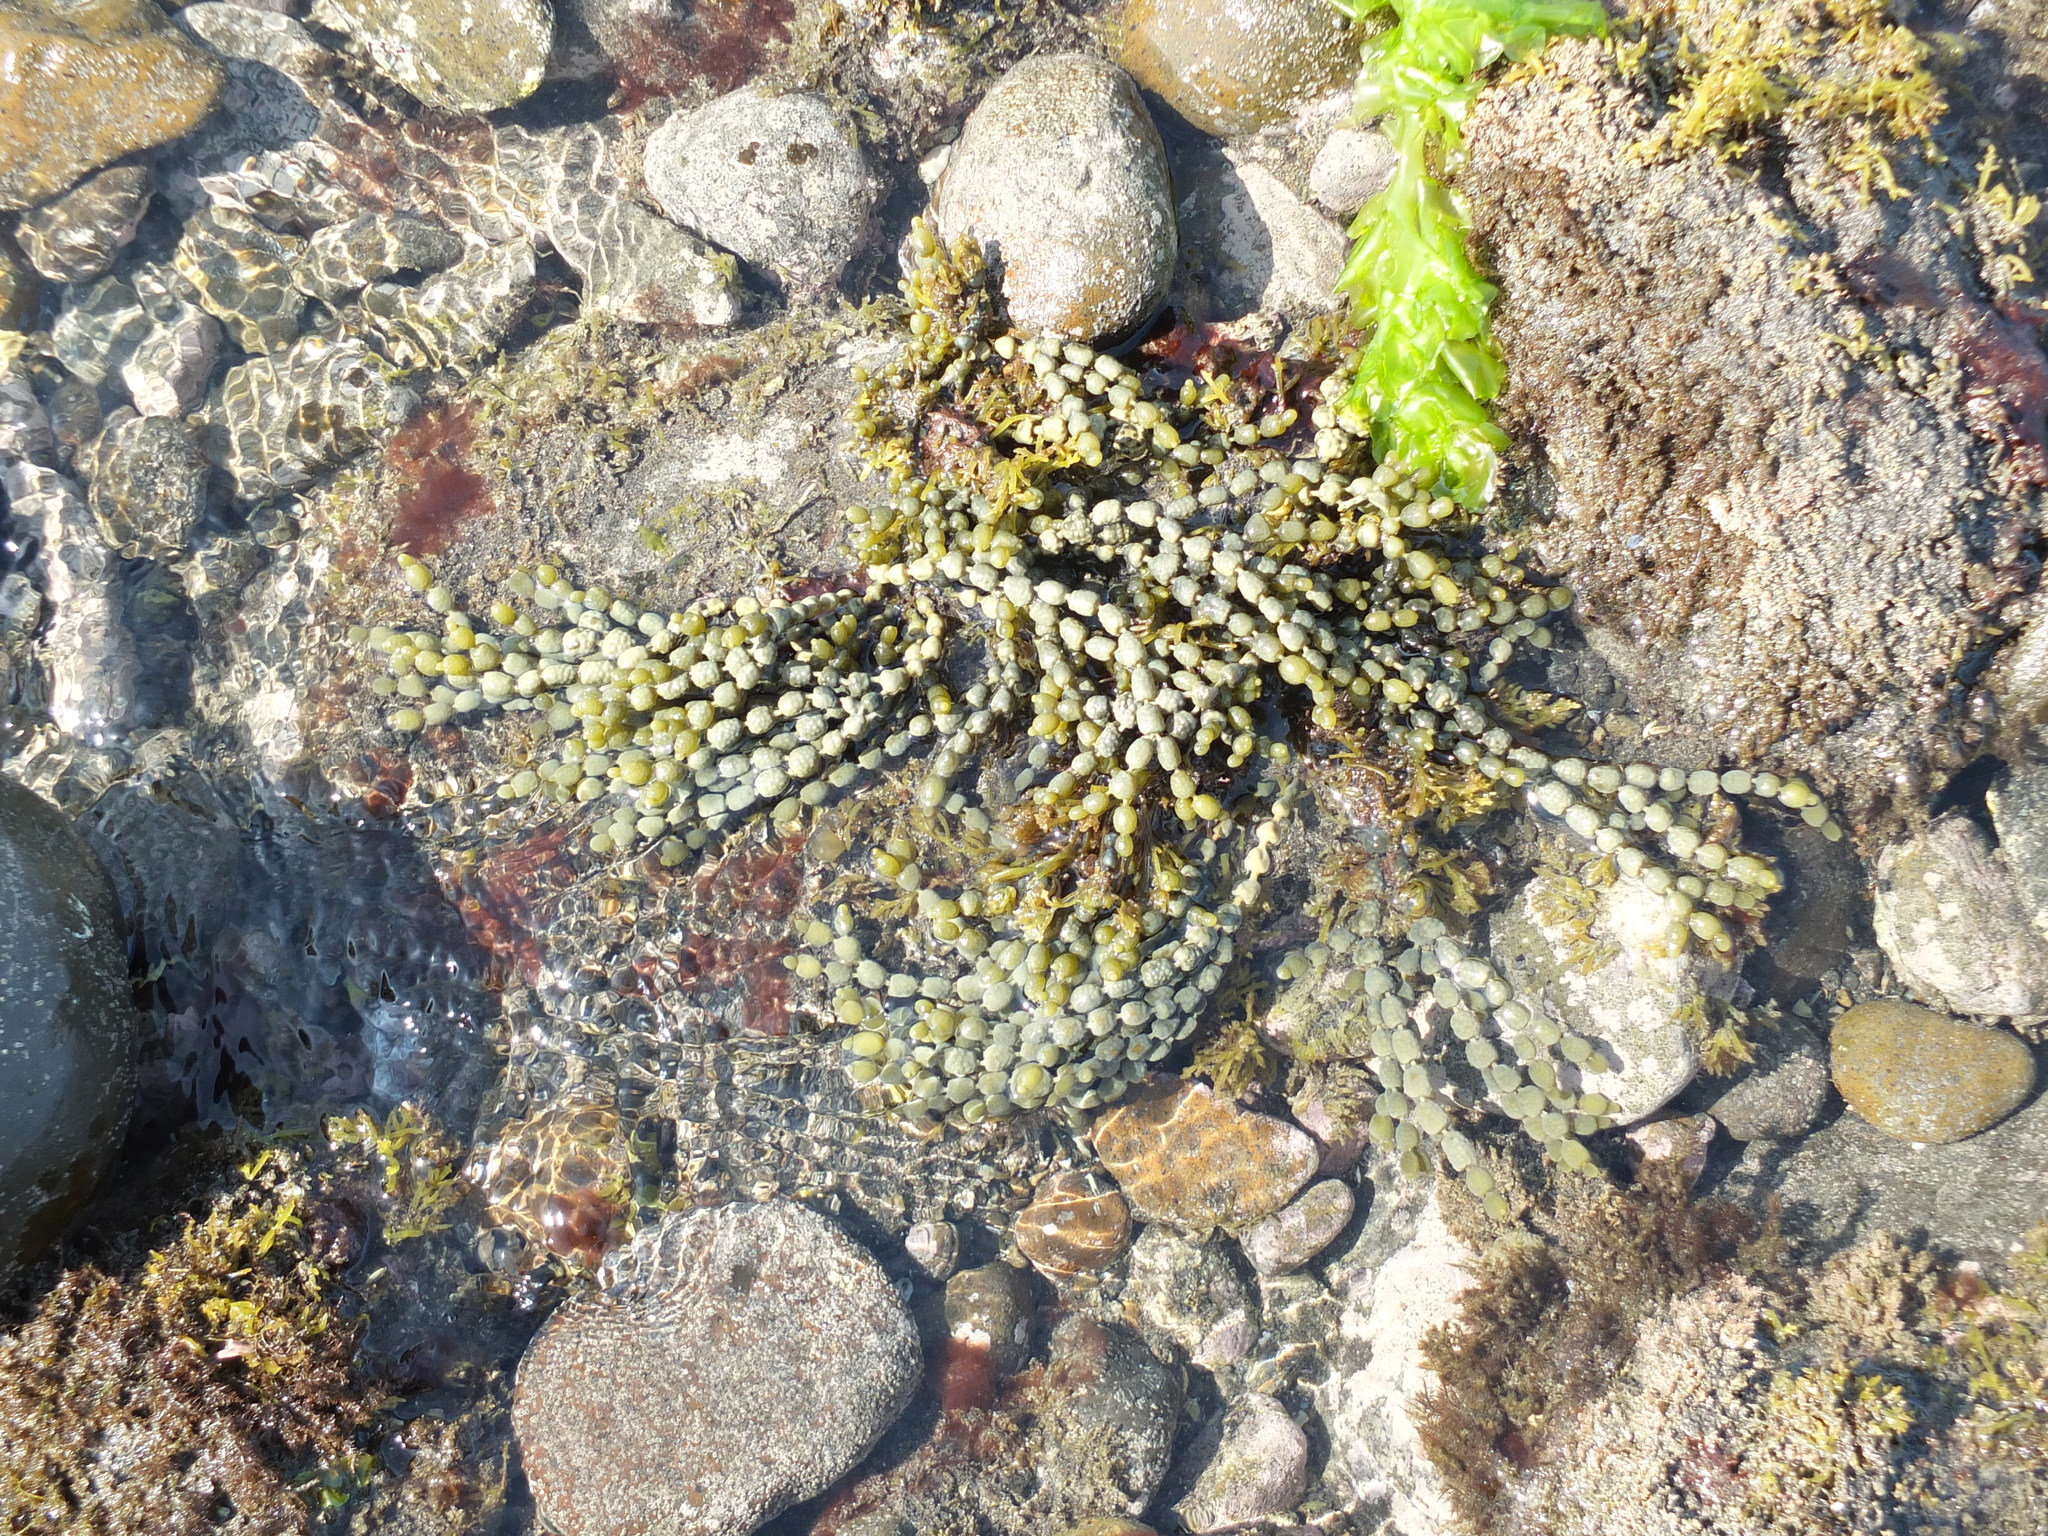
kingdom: Chromista
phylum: Ochrophyta
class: Phaeophyceae
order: Fucales
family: Hormosiraceae
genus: Hormosira
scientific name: Hormosira banksii
